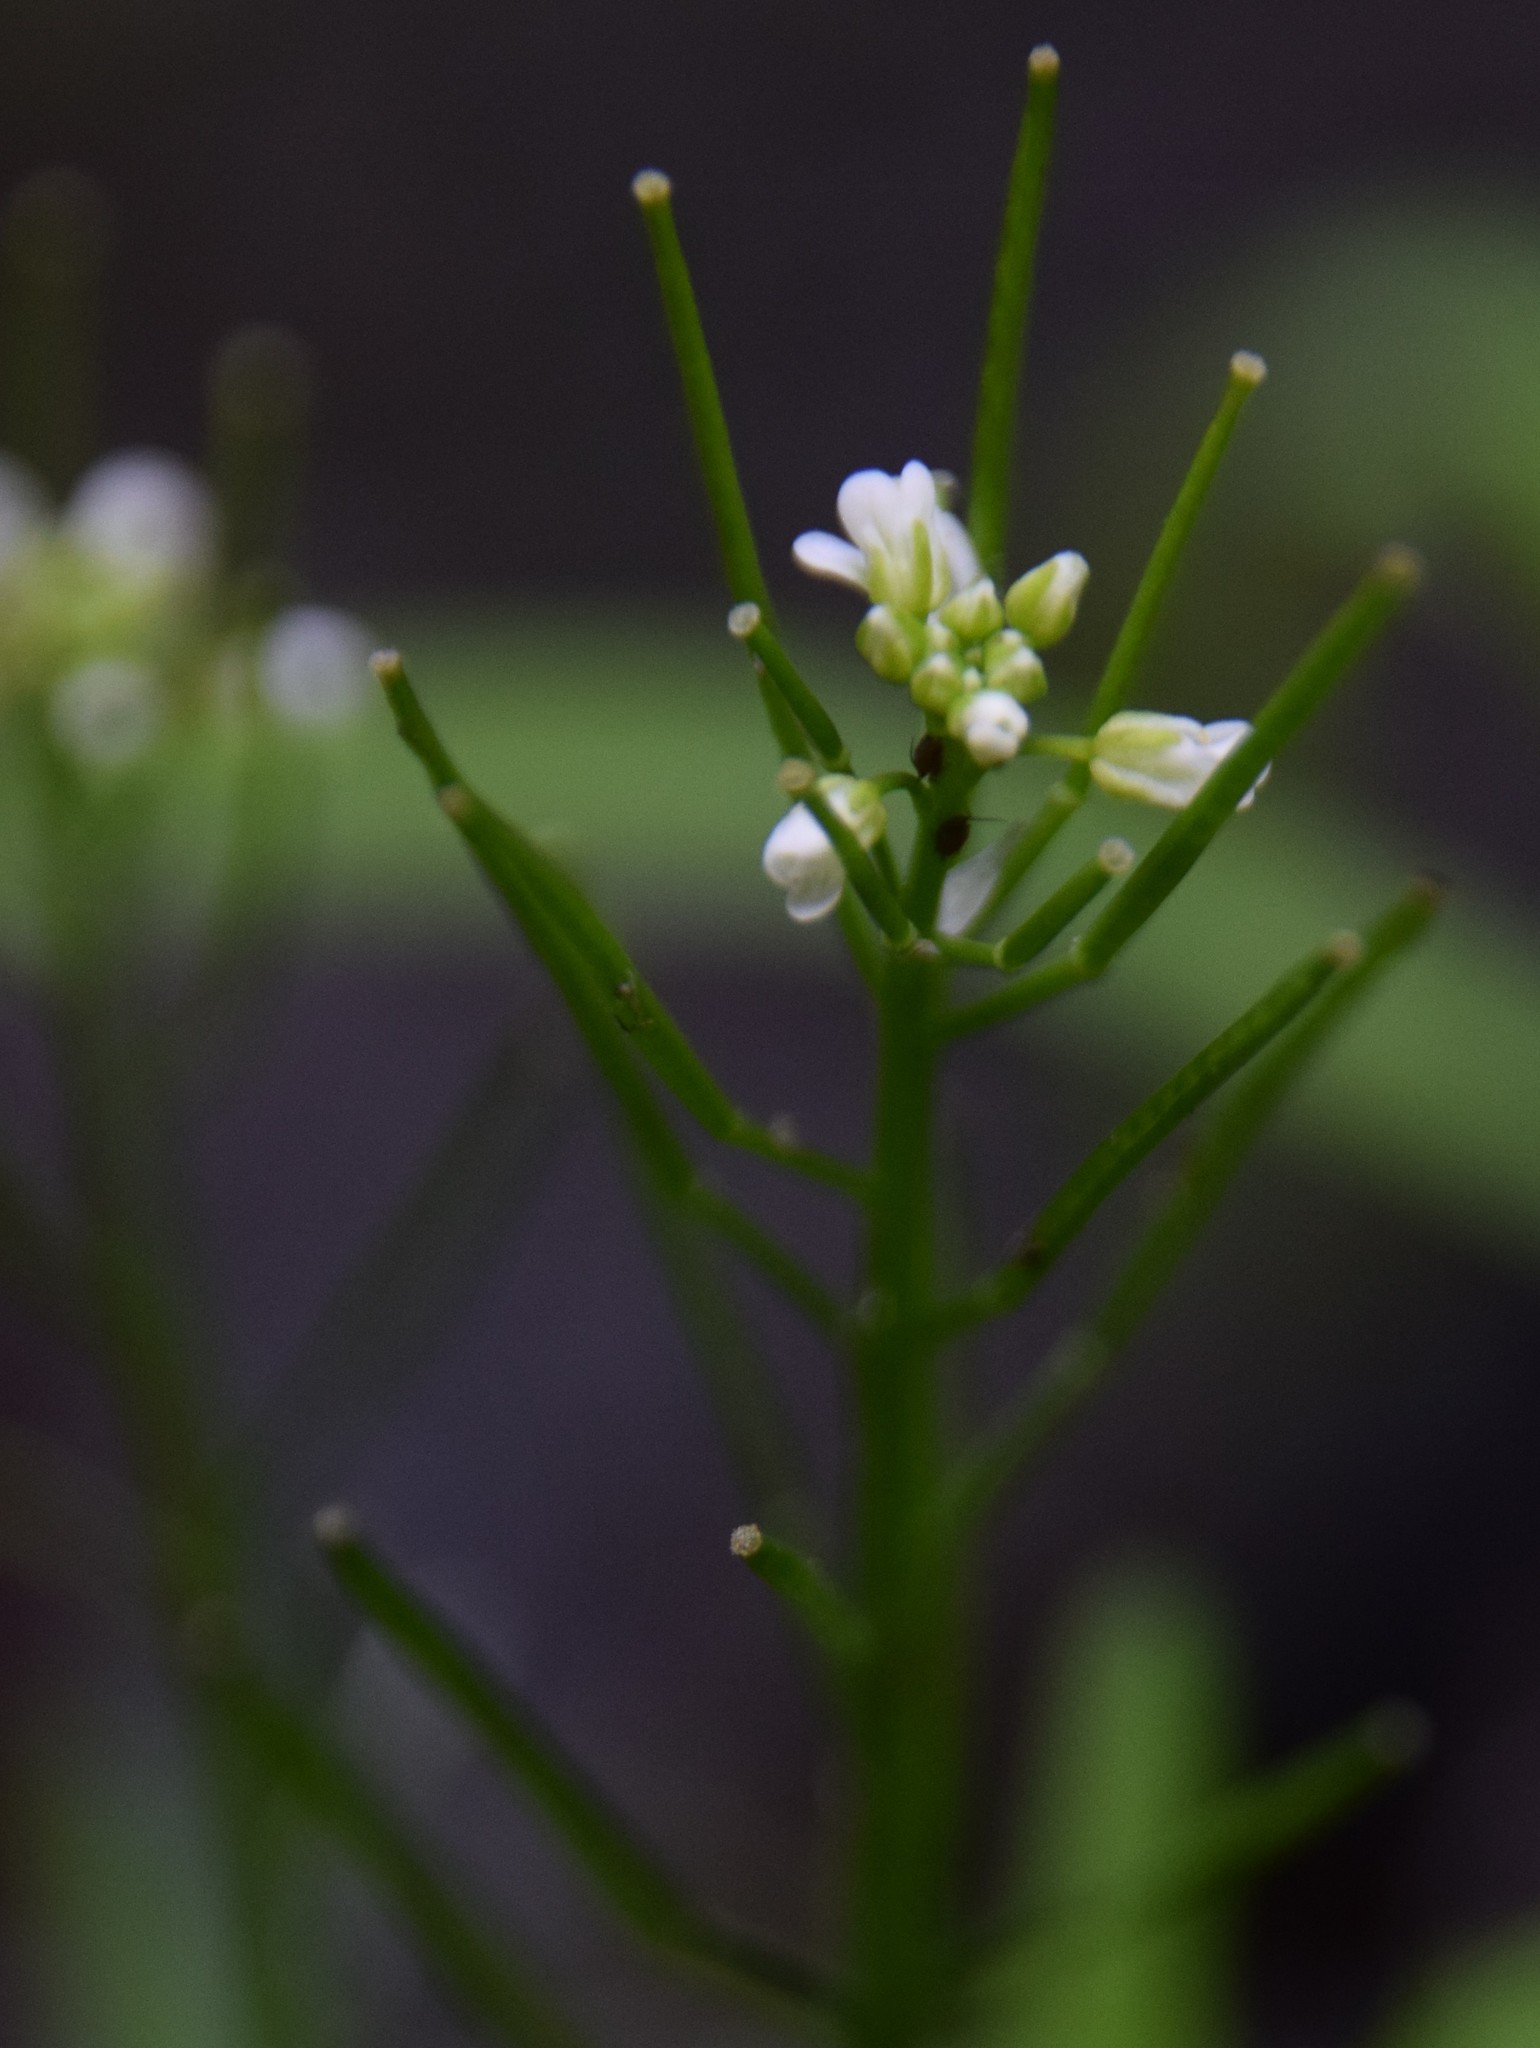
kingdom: Plantae
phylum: Tracheophyta
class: Magnoliopsida
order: Brassicales
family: Brassicaceae
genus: Cardamine
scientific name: Cardamine pensylvanica
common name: Pennsylvania bittercress
